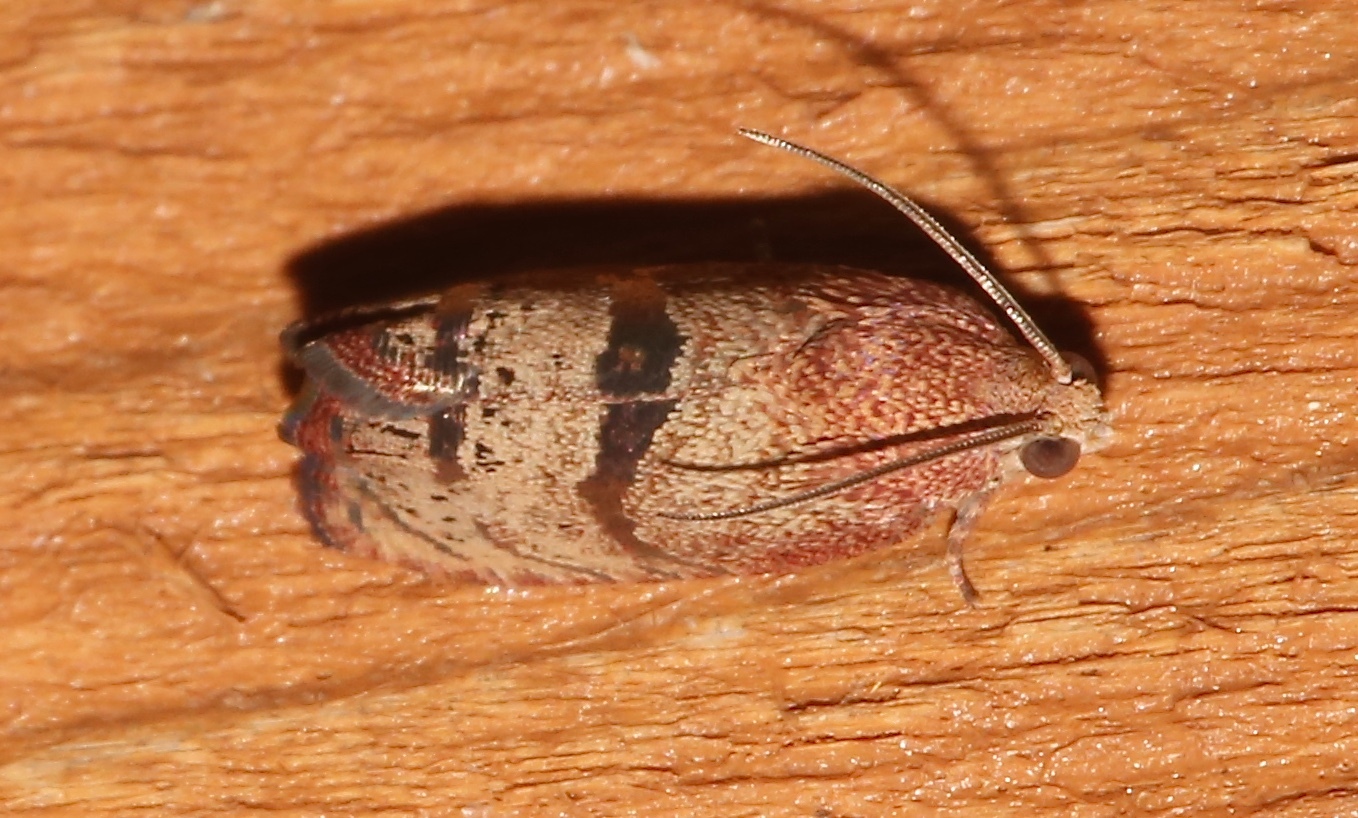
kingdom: Animalia
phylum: Arthropoda
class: Insecta
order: Lepidoptera
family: Tortricidae
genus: Cydia
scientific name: Cydia latiferreana
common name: Filbertworm moth
